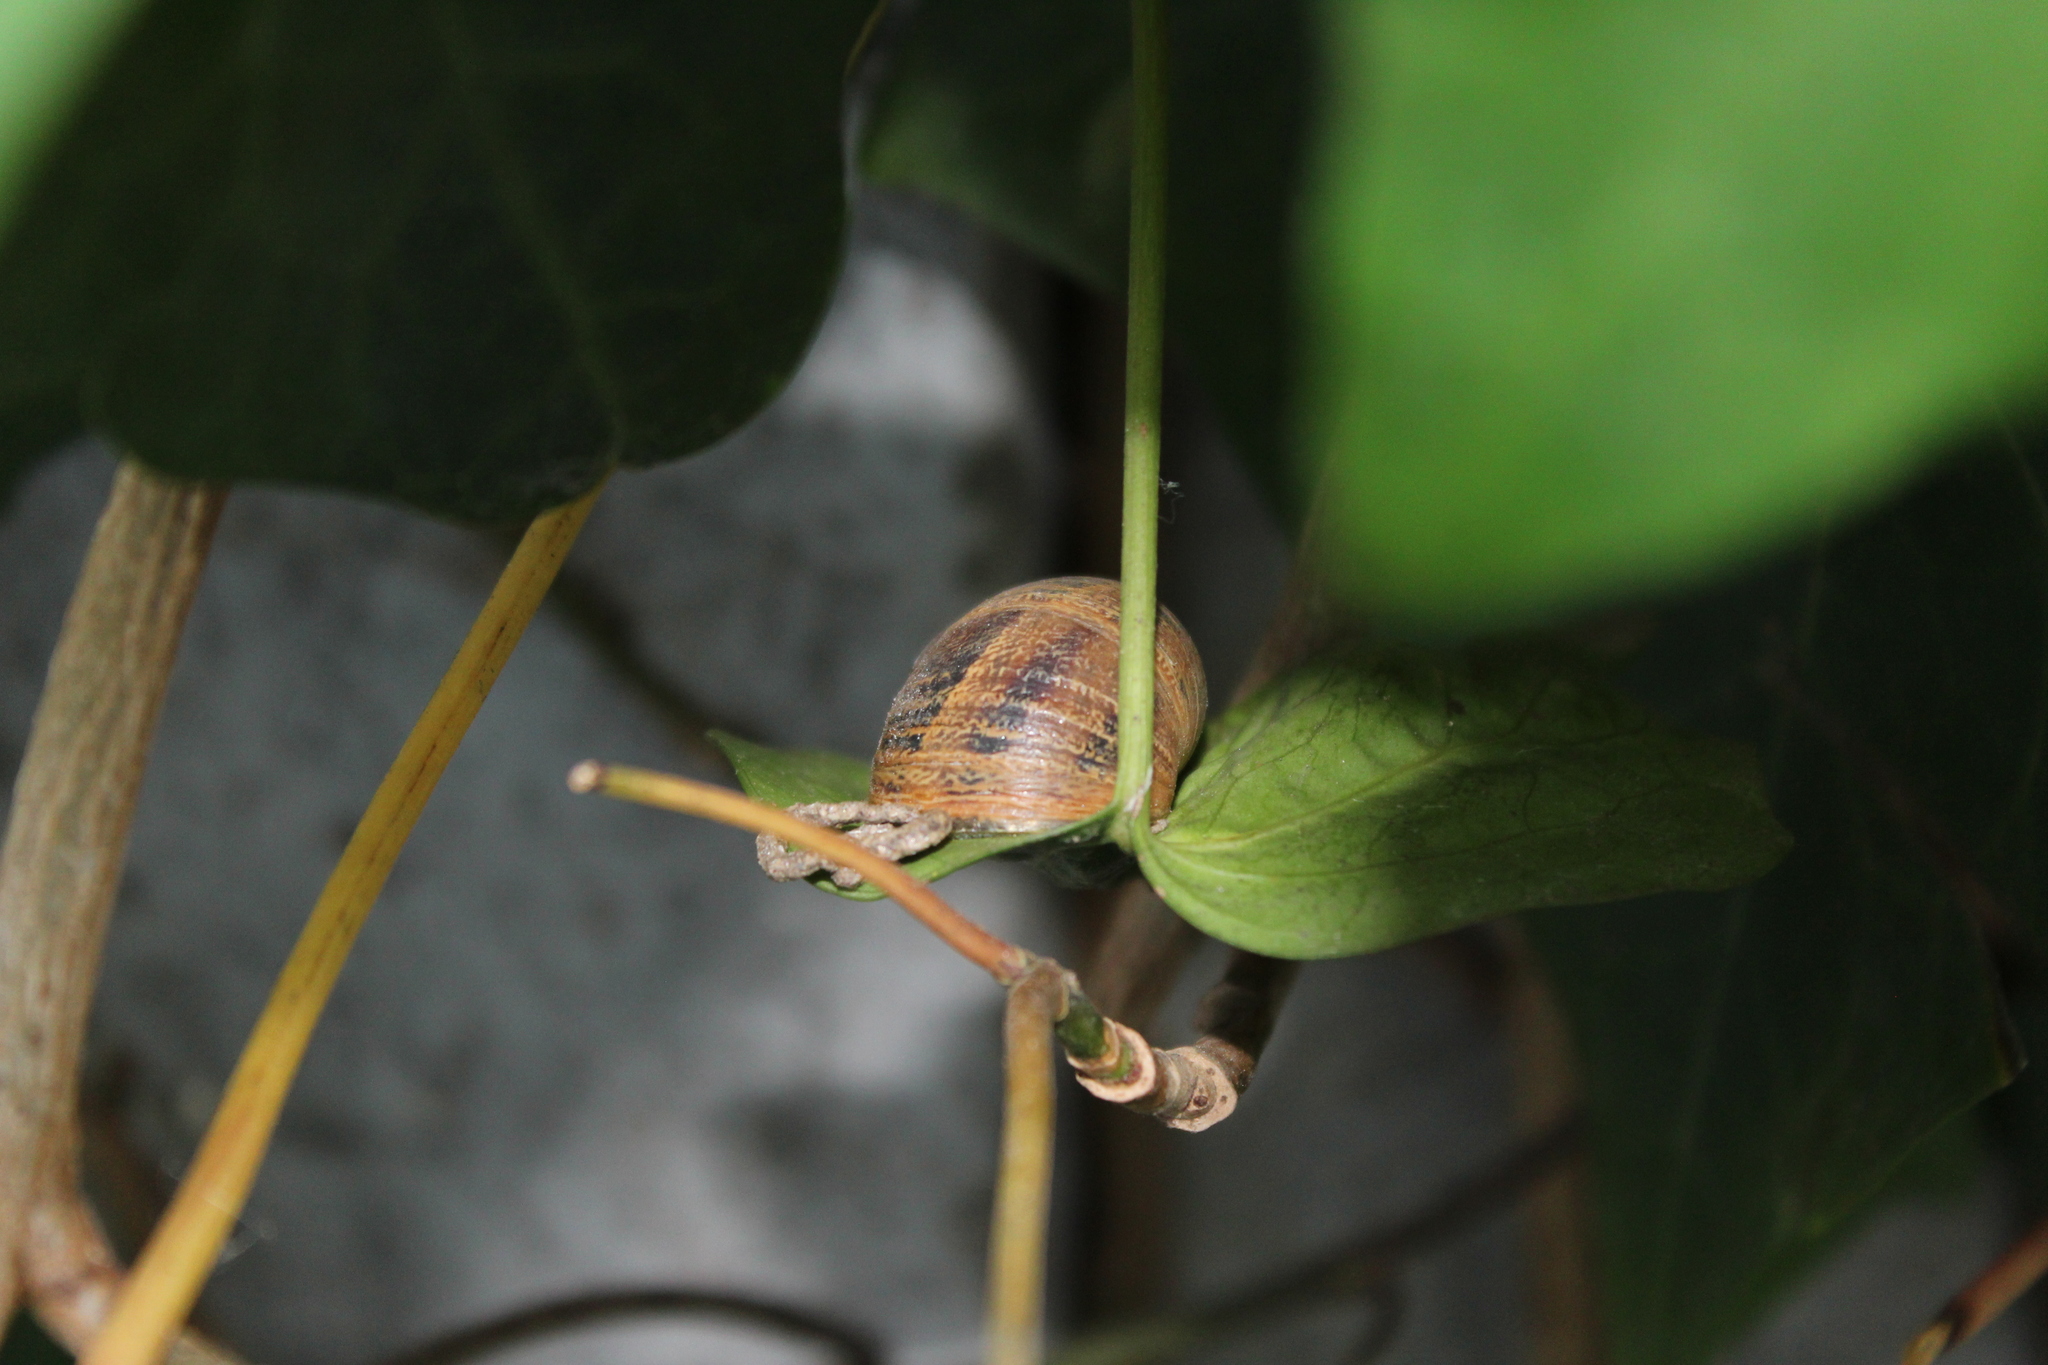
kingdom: Animalia
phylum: Mollusca
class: Gastropoda
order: Stylommatophora
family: Helicidae
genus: Cornu
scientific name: Cornu aspersum
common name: Brown garden snail
